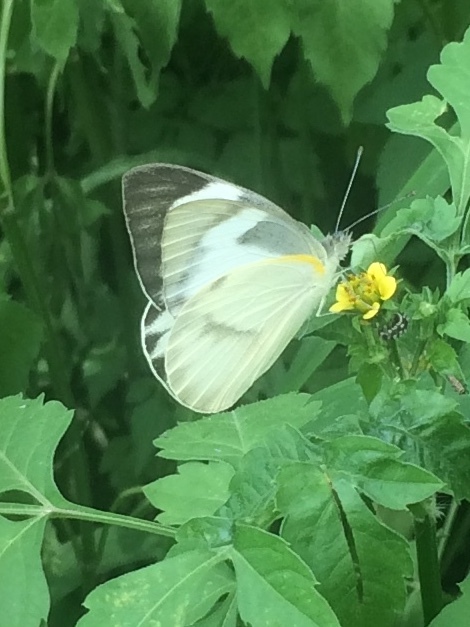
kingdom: Animalia
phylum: Arthropoda
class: Insecta
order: Lepidoptera
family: Pieridae
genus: Appias
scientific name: Appias libythea
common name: Striped albatross
